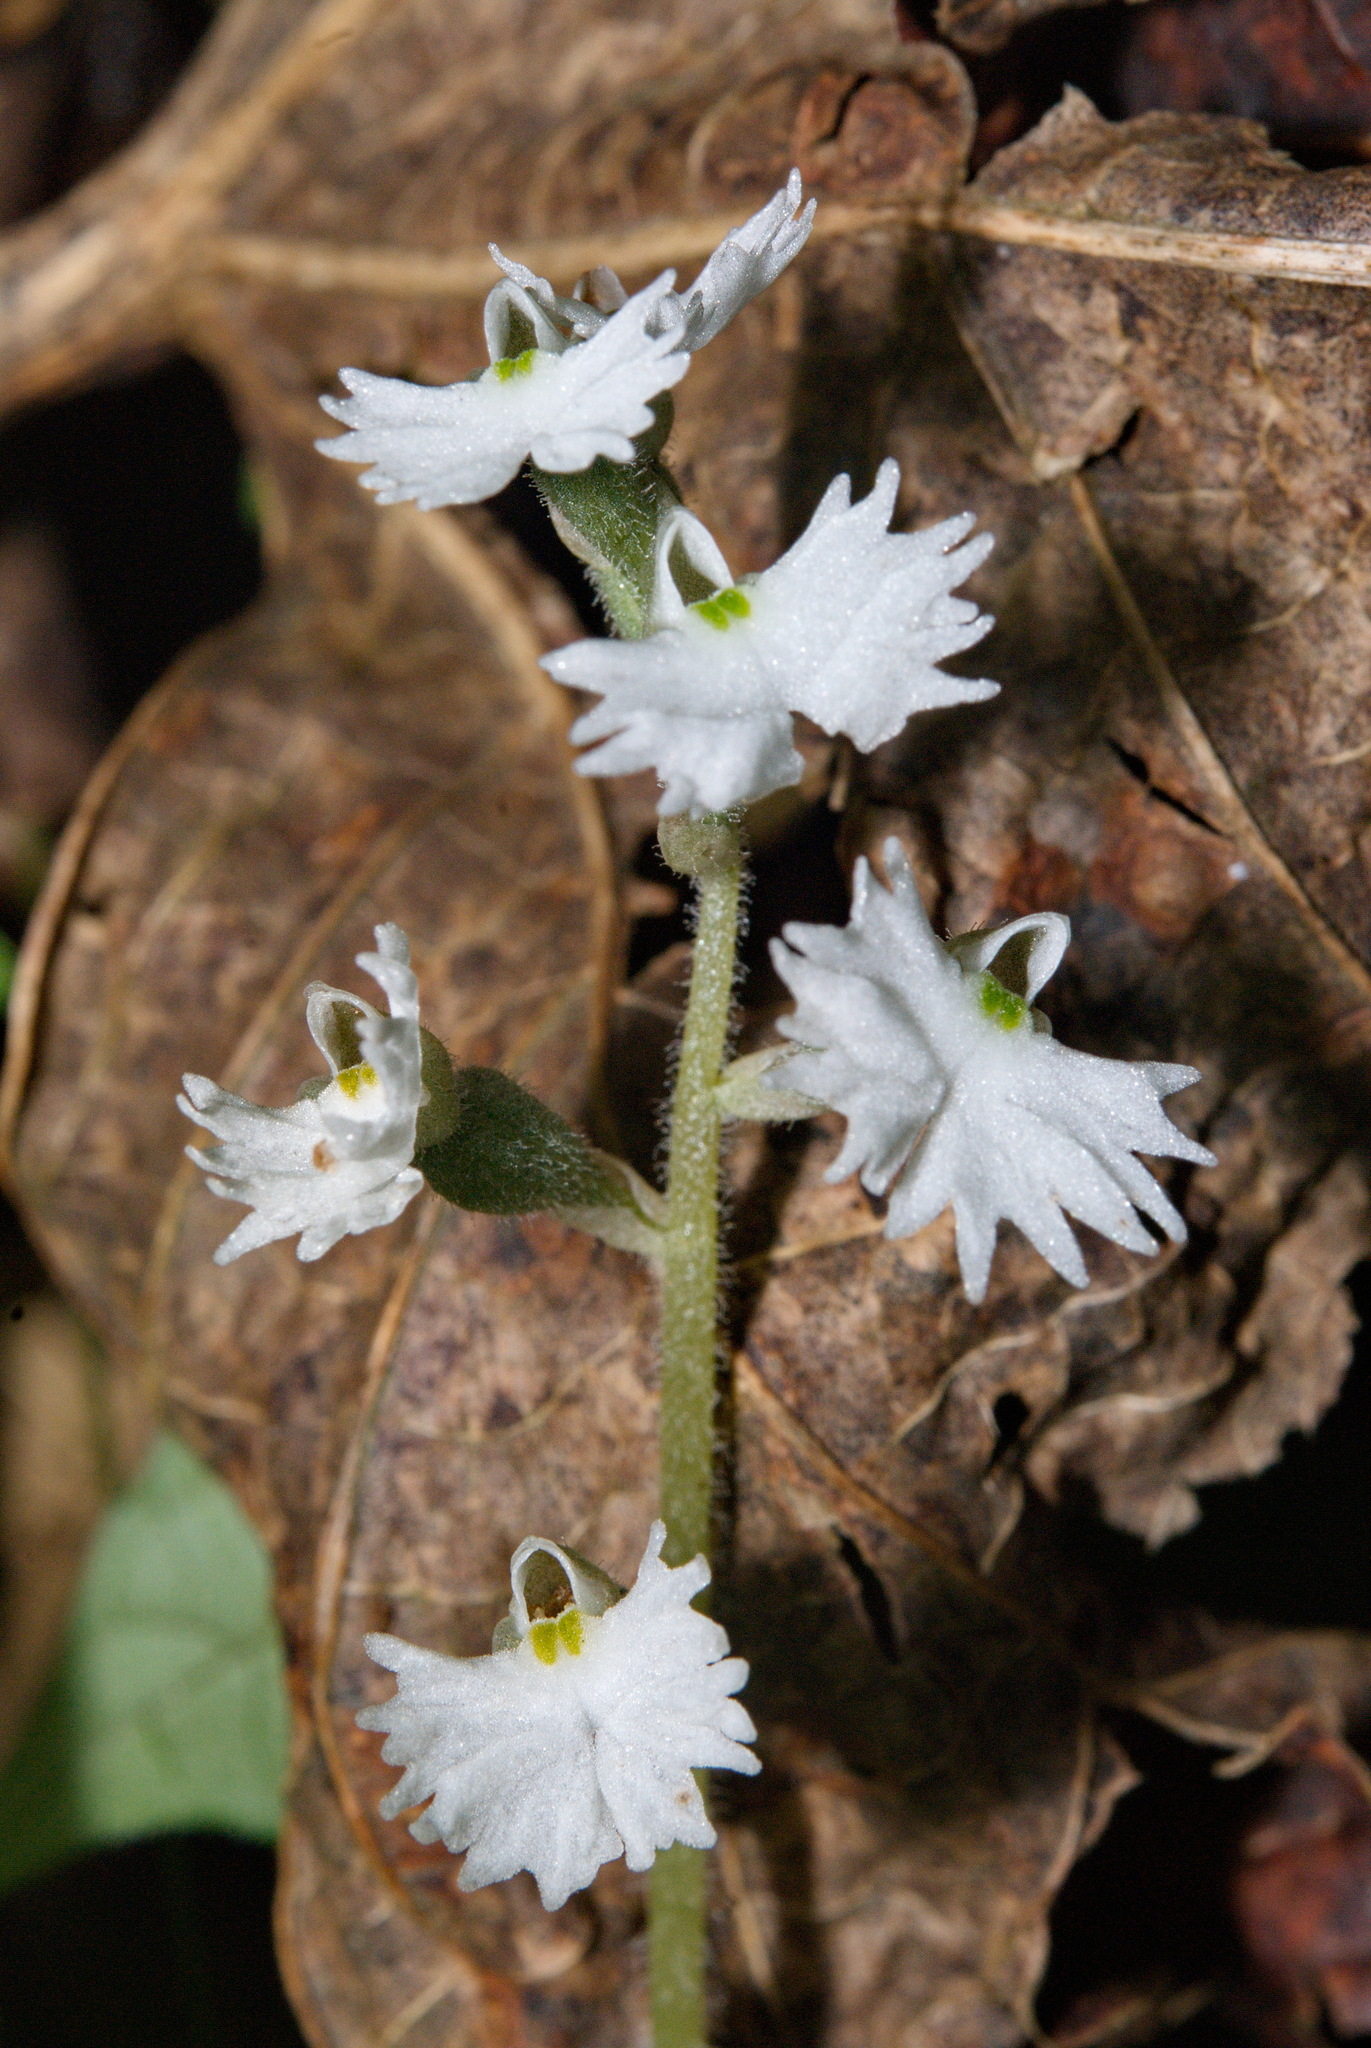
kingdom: Plantae
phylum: Tracheophyta
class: Liliopsida
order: Asparagales
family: Orchidaceae
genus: Cheirostylis
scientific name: Cheirostylis chinensis
